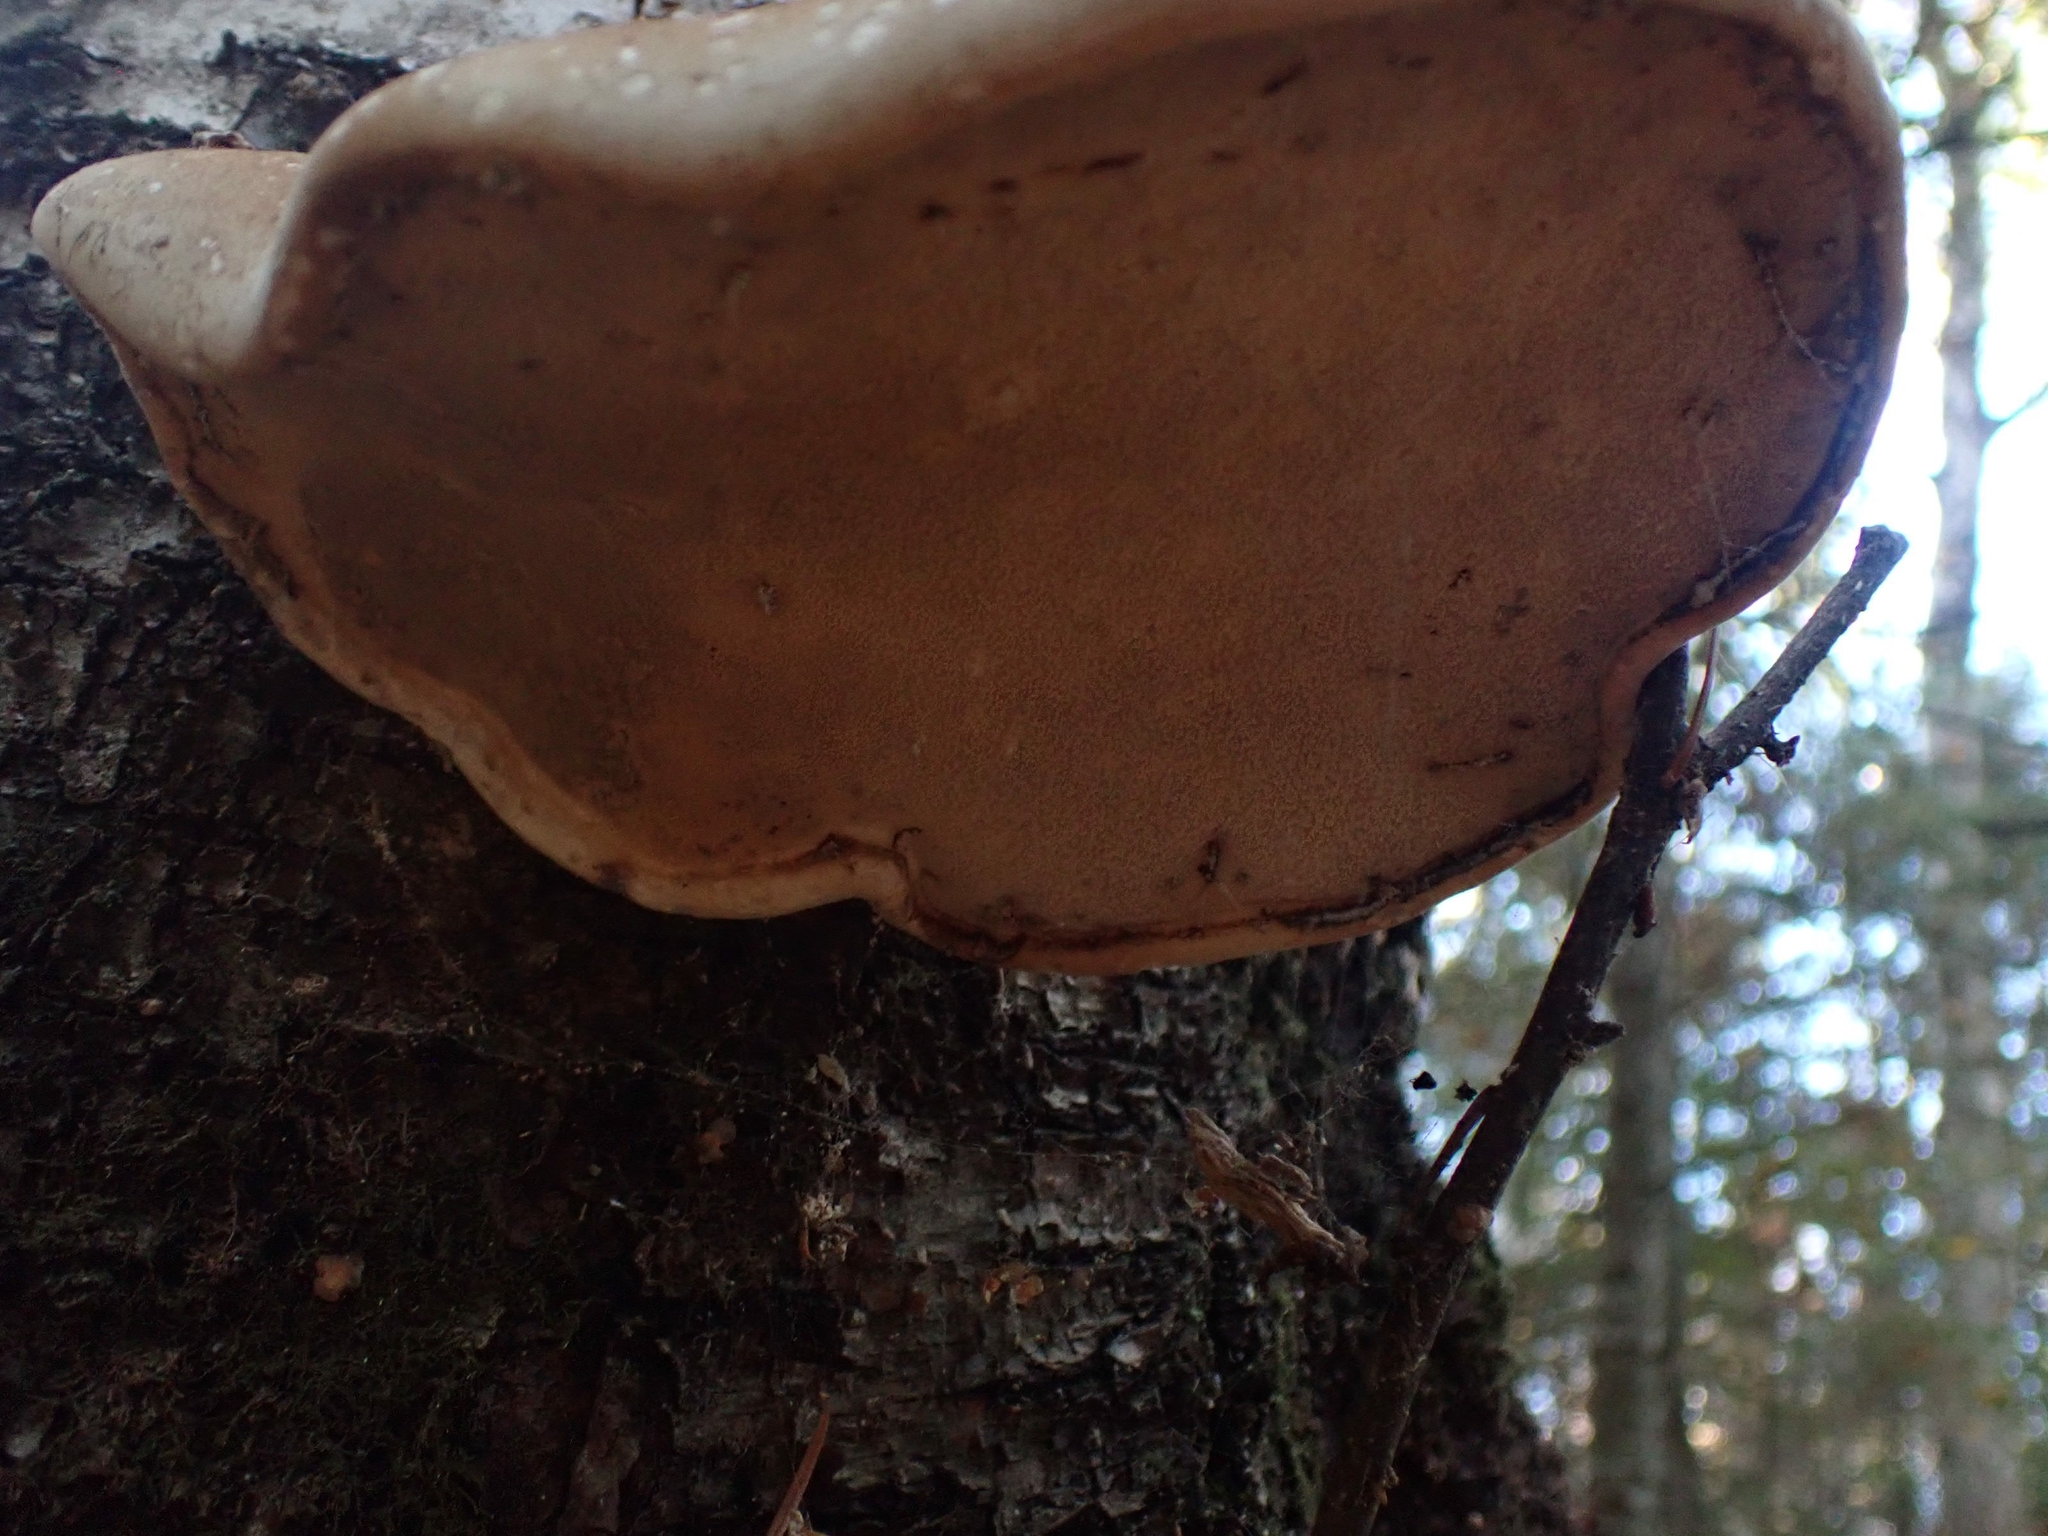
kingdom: Fungi
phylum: Basidiomycota
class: Agaricomycetes
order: Polyporales
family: Fomitopsidaceae
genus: Fomitopsis
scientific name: Fomitopsis betulina
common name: Birch polypore
